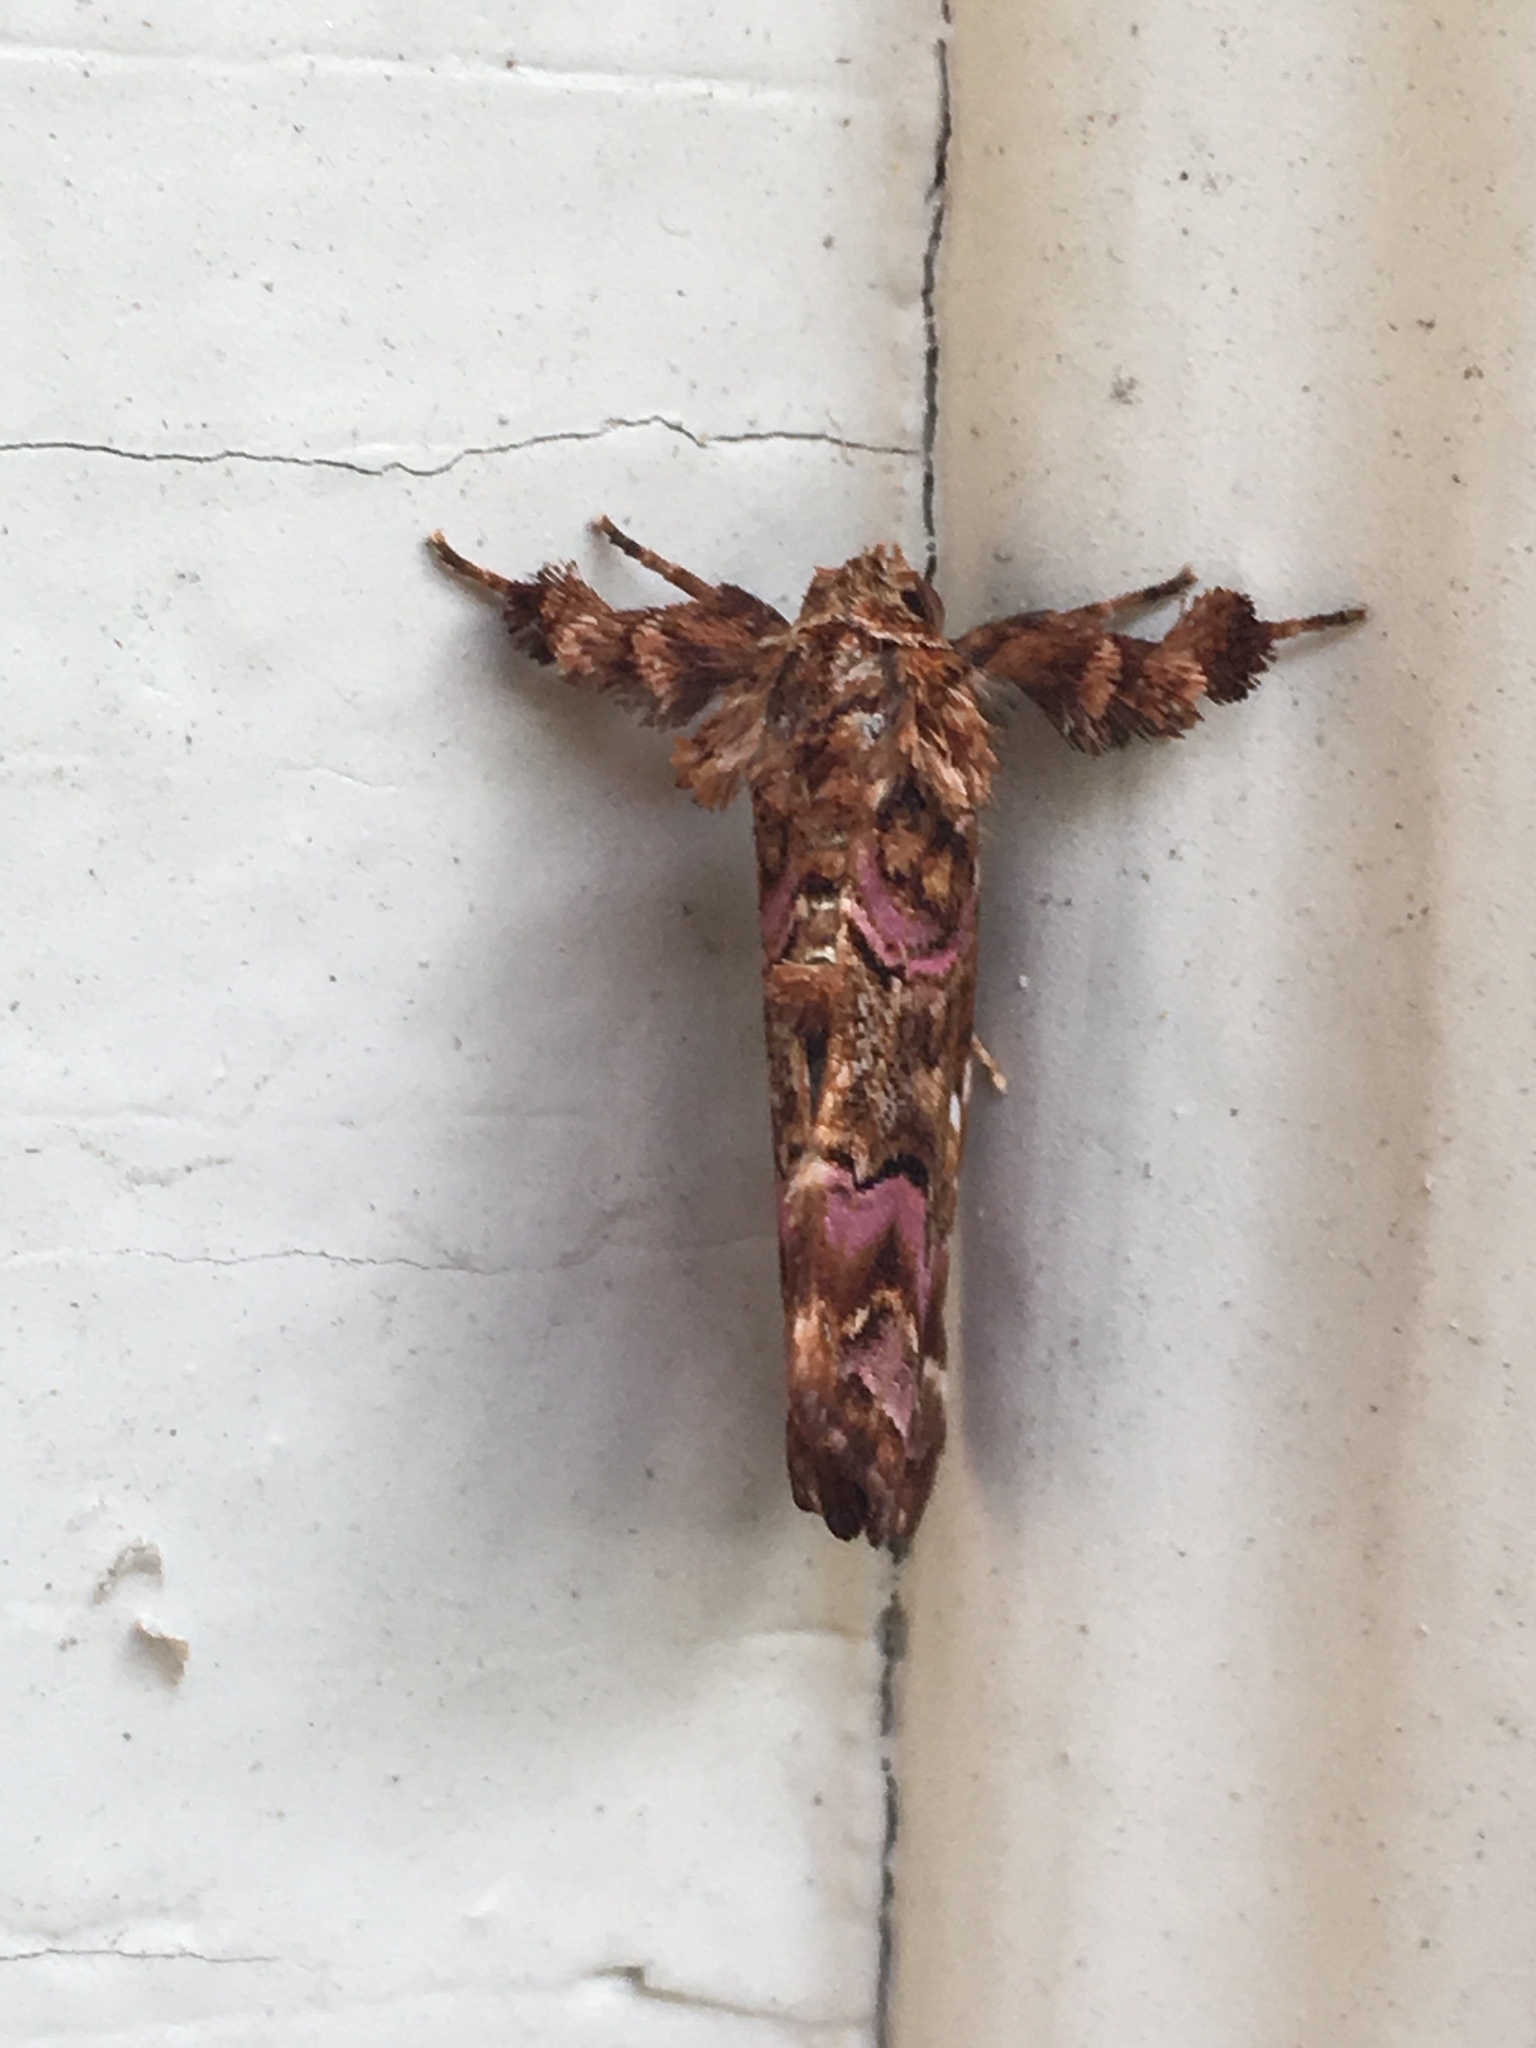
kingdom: Animalia
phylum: Arthropoda
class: Insecta
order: Lepidoptera
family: Noctuidae
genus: Callopistria
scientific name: Callopistria mollissima
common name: Pink-shaded fern moth
